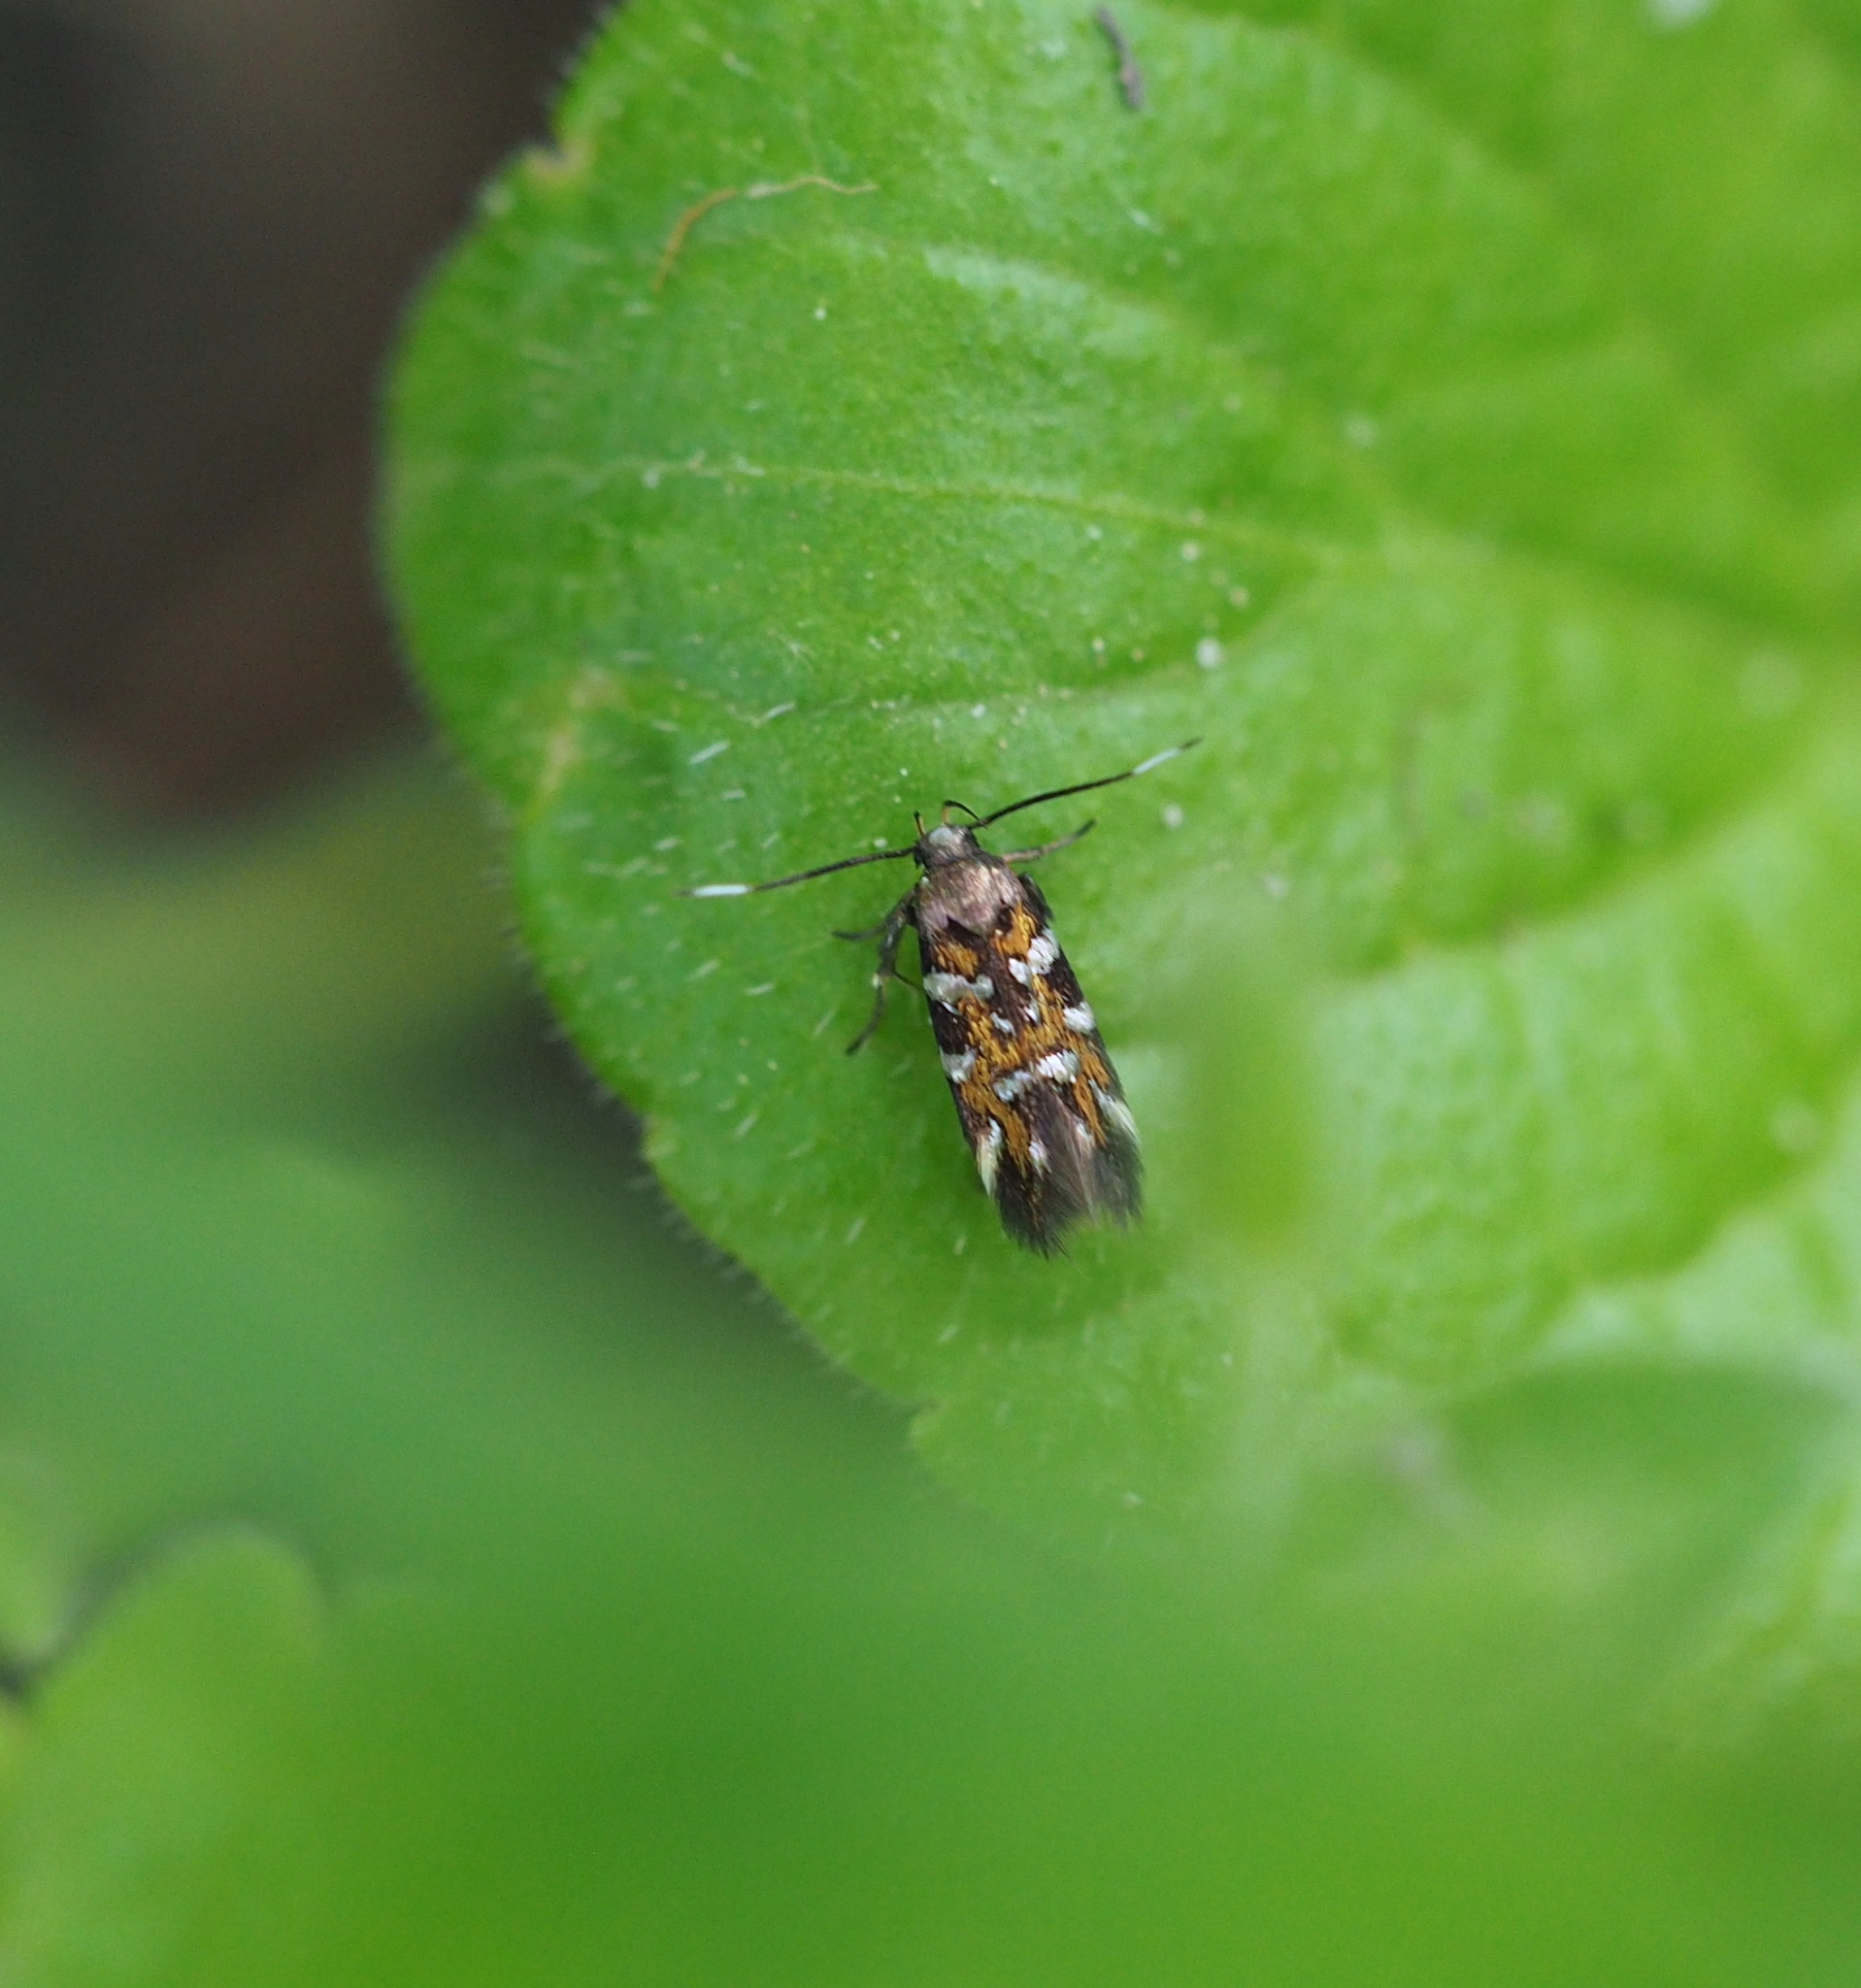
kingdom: Animalia
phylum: Arthropoda
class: Insecta
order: Lepidoptera
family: Cosmopterigidae
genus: Pancalia
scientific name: Pancalia leuwenhoekella
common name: Violet cosmet
